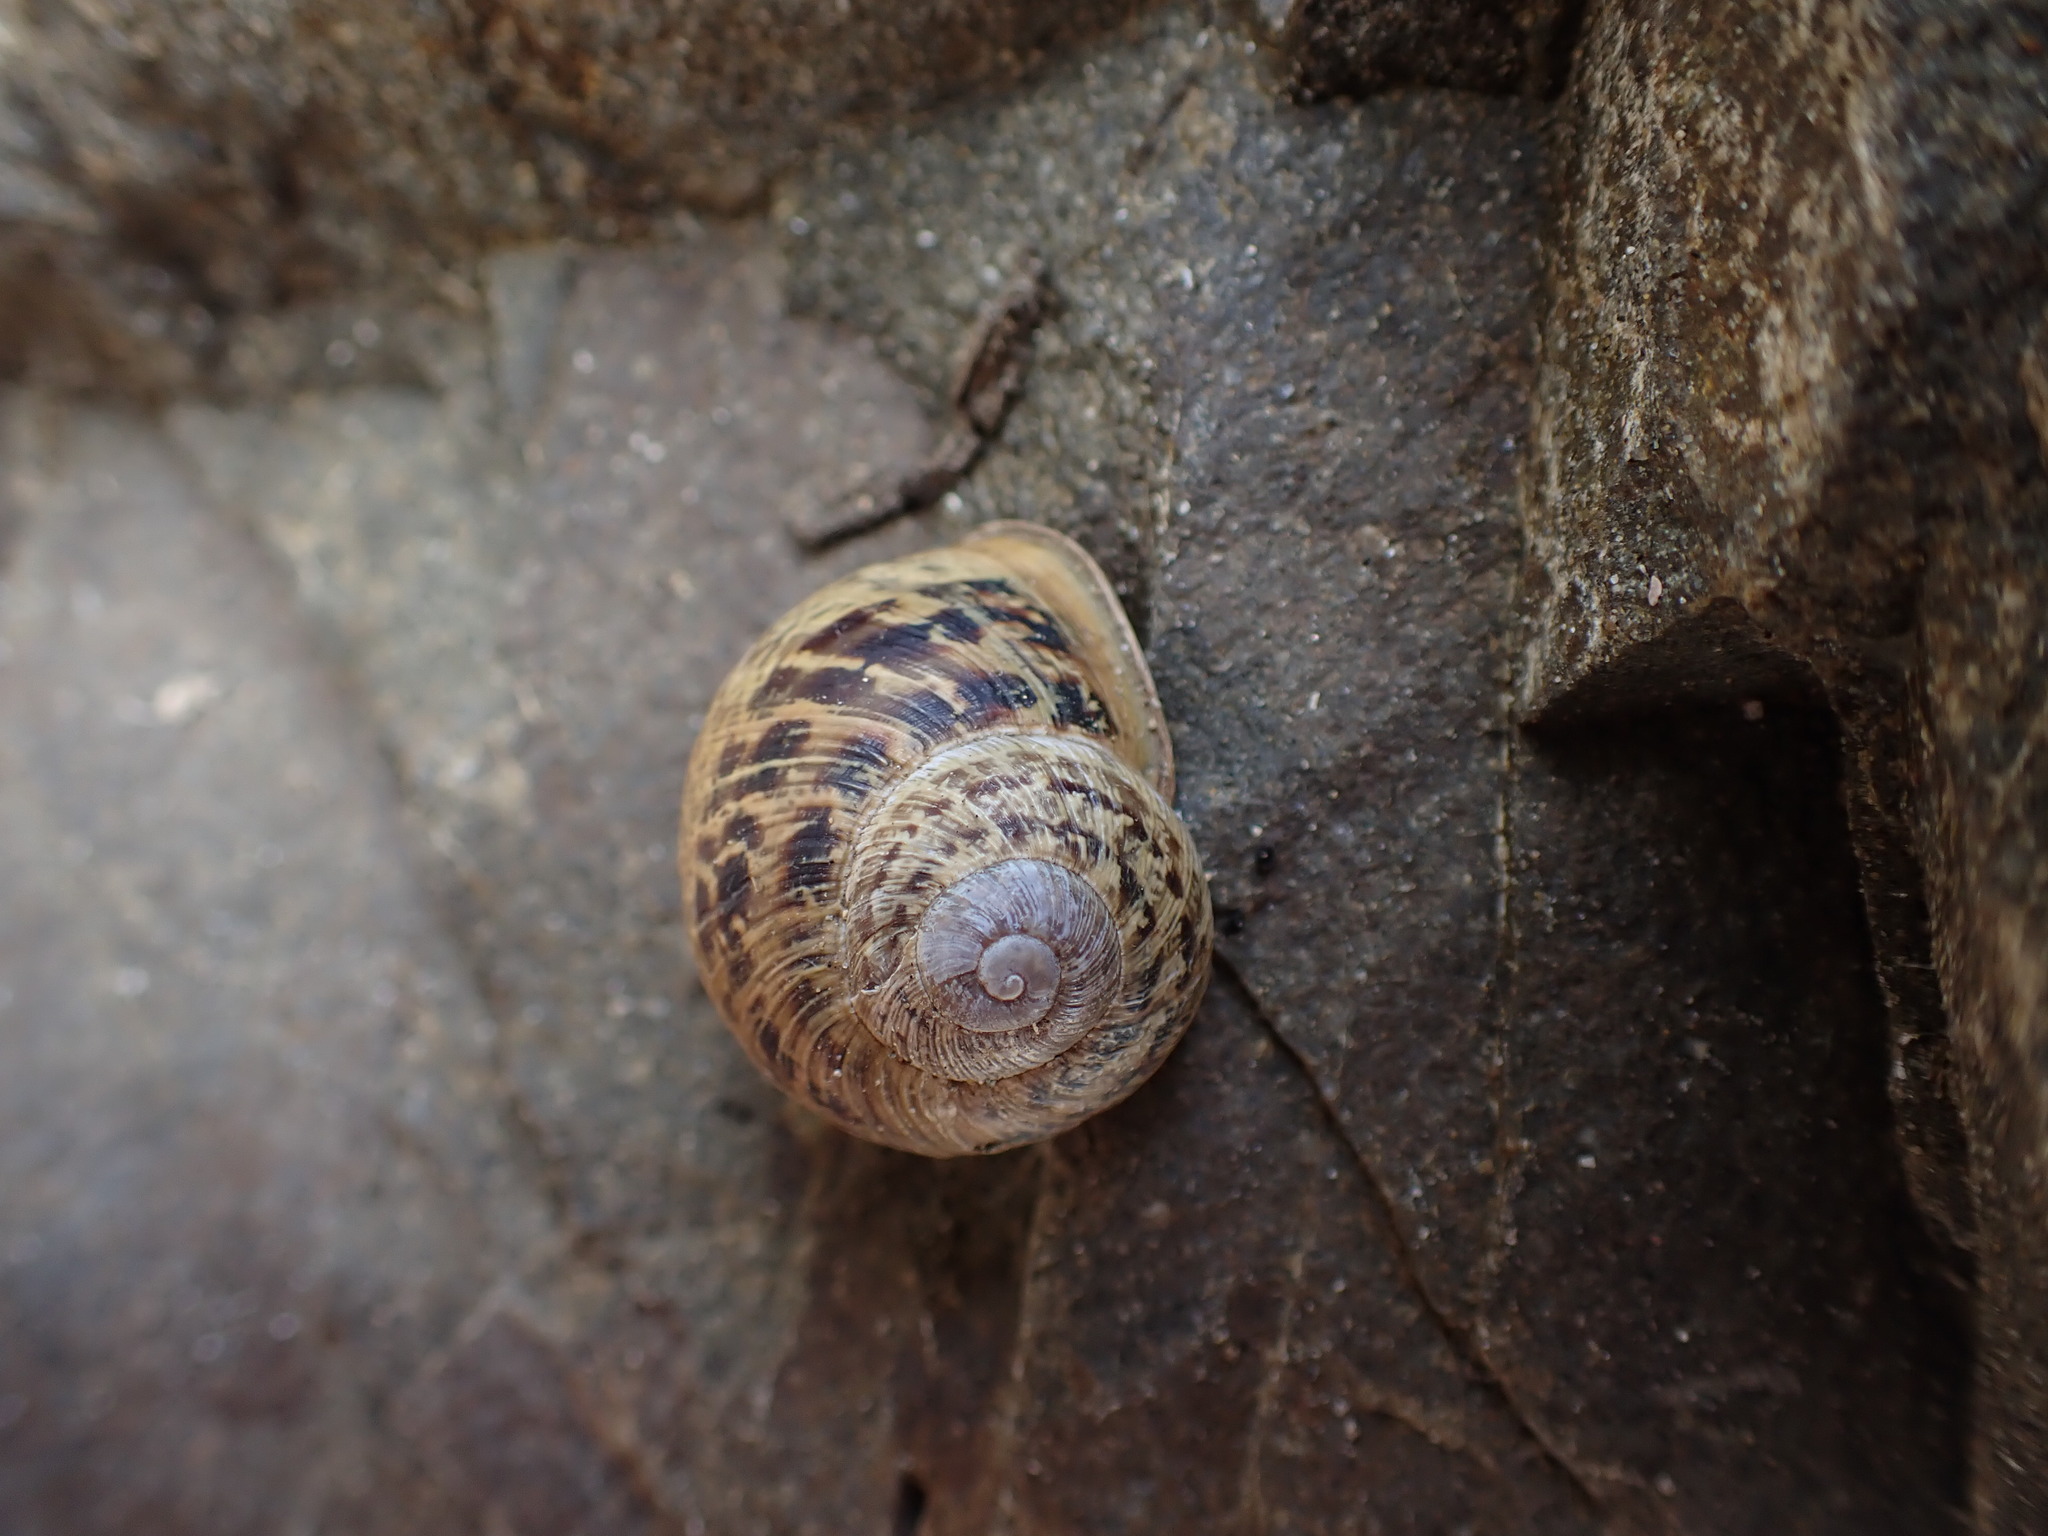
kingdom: Animalia
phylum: Mollusca
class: Gastropoda
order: Stylommatophora
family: Helicidae
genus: Cornu
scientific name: Cornu aspersum
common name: Brown garden snail
